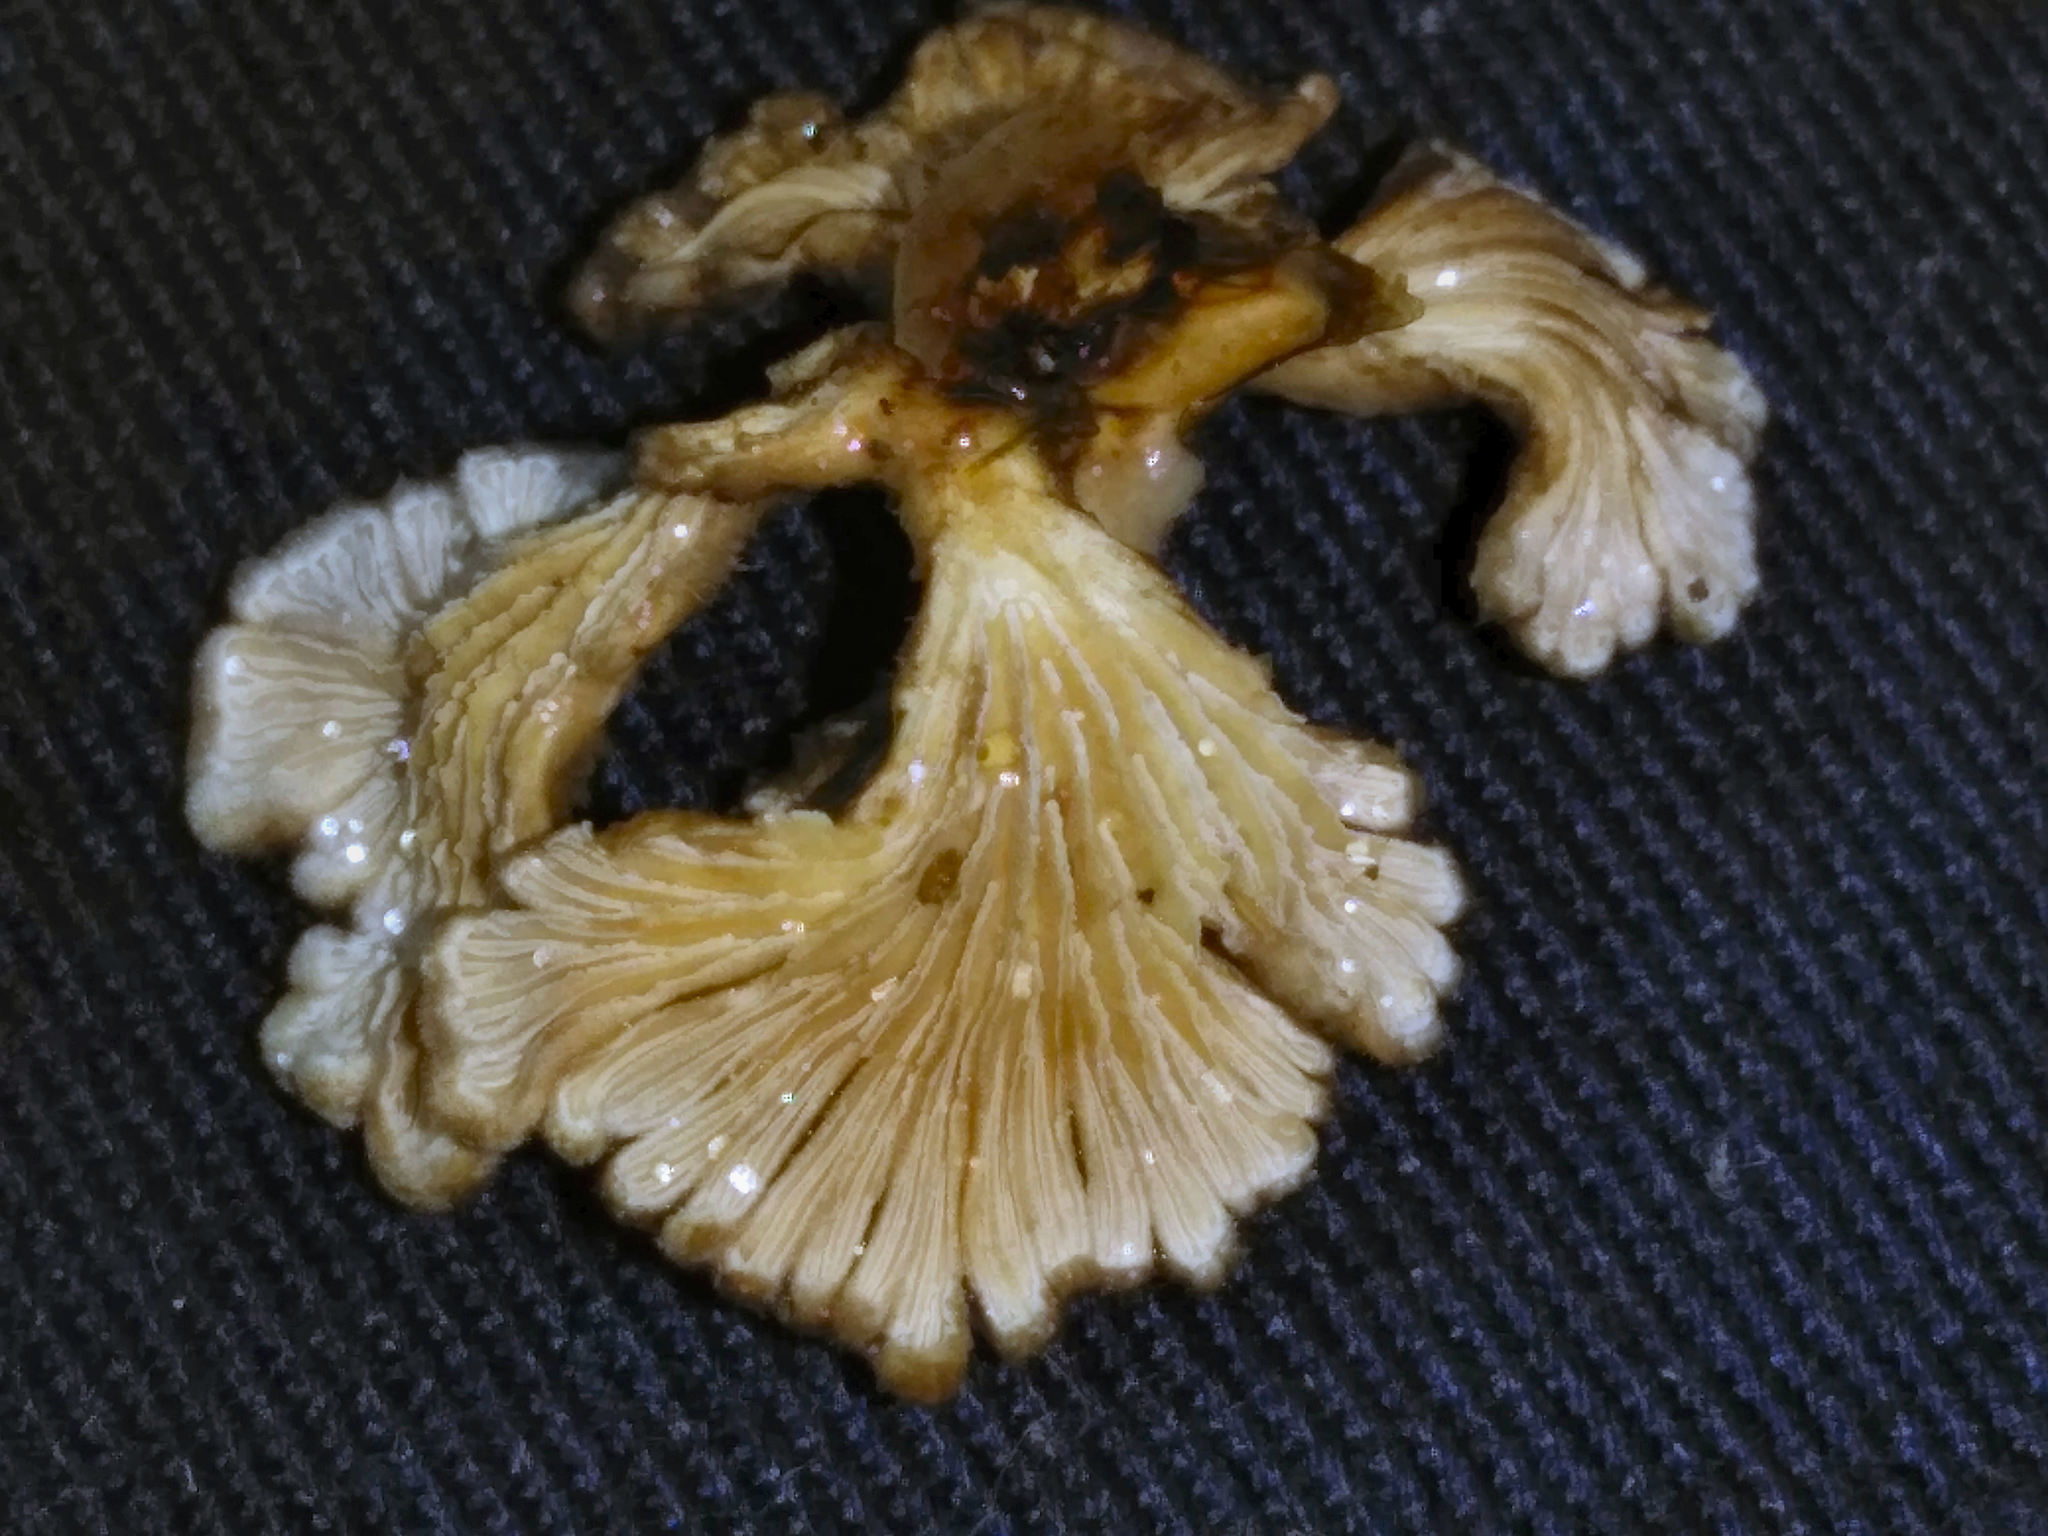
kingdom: Fungi
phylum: Basidiomycota
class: Agaricomycetes
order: Agaricales
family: Schizophyllaceae
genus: Schizophyllum
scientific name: Schizophyllum commune
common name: Common porecrust
